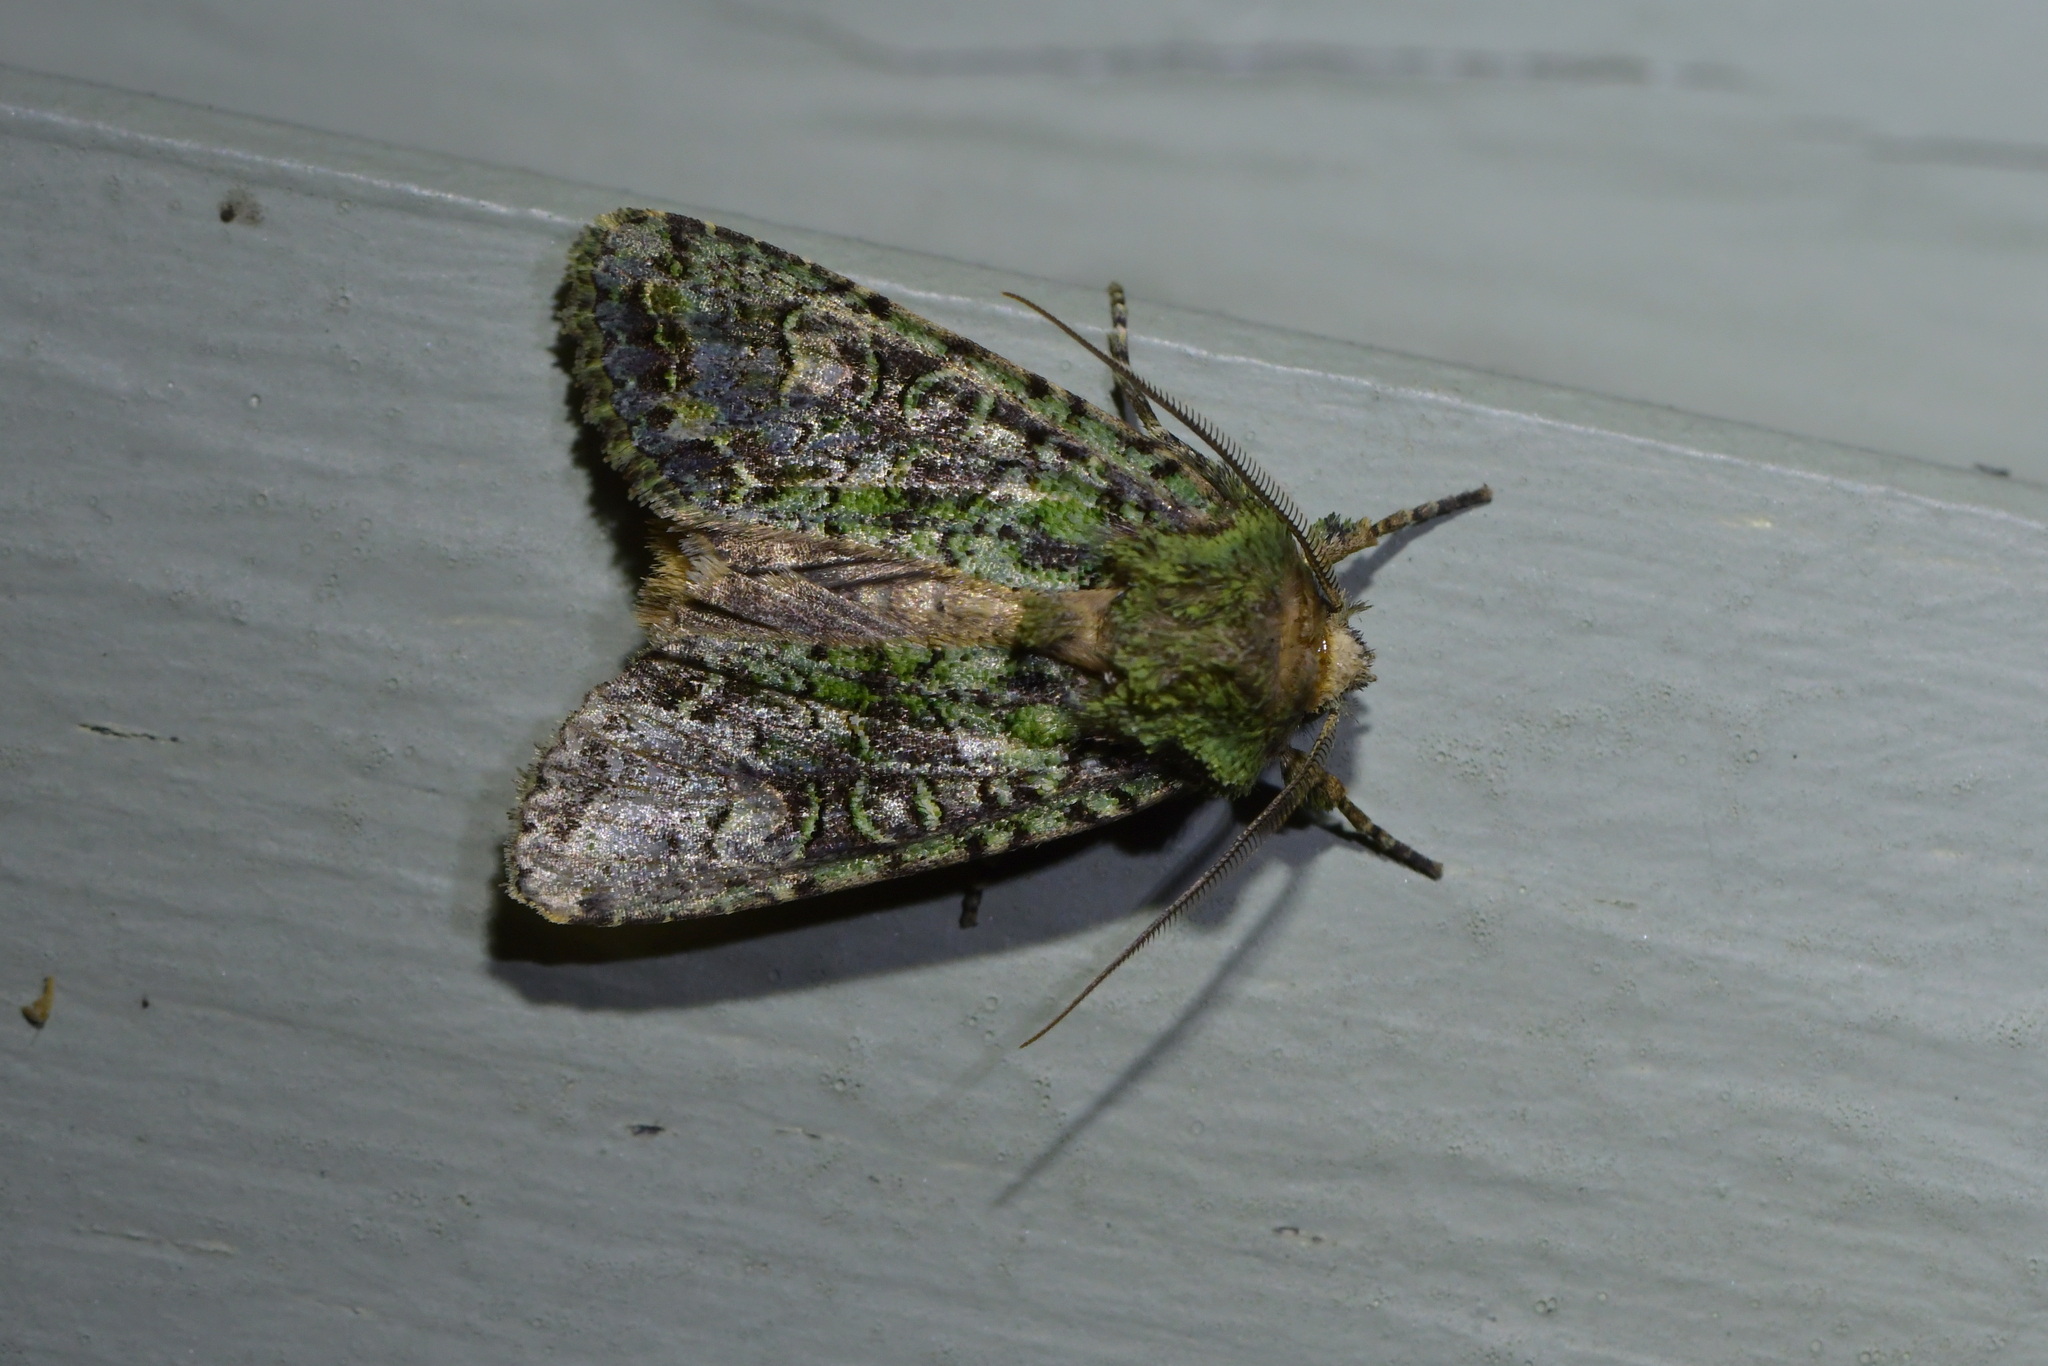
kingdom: Animalia
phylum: Arthropoda
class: Insecta
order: Lepidoptera
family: Noctuidae
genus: Ichneutica
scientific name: Ichneutica
